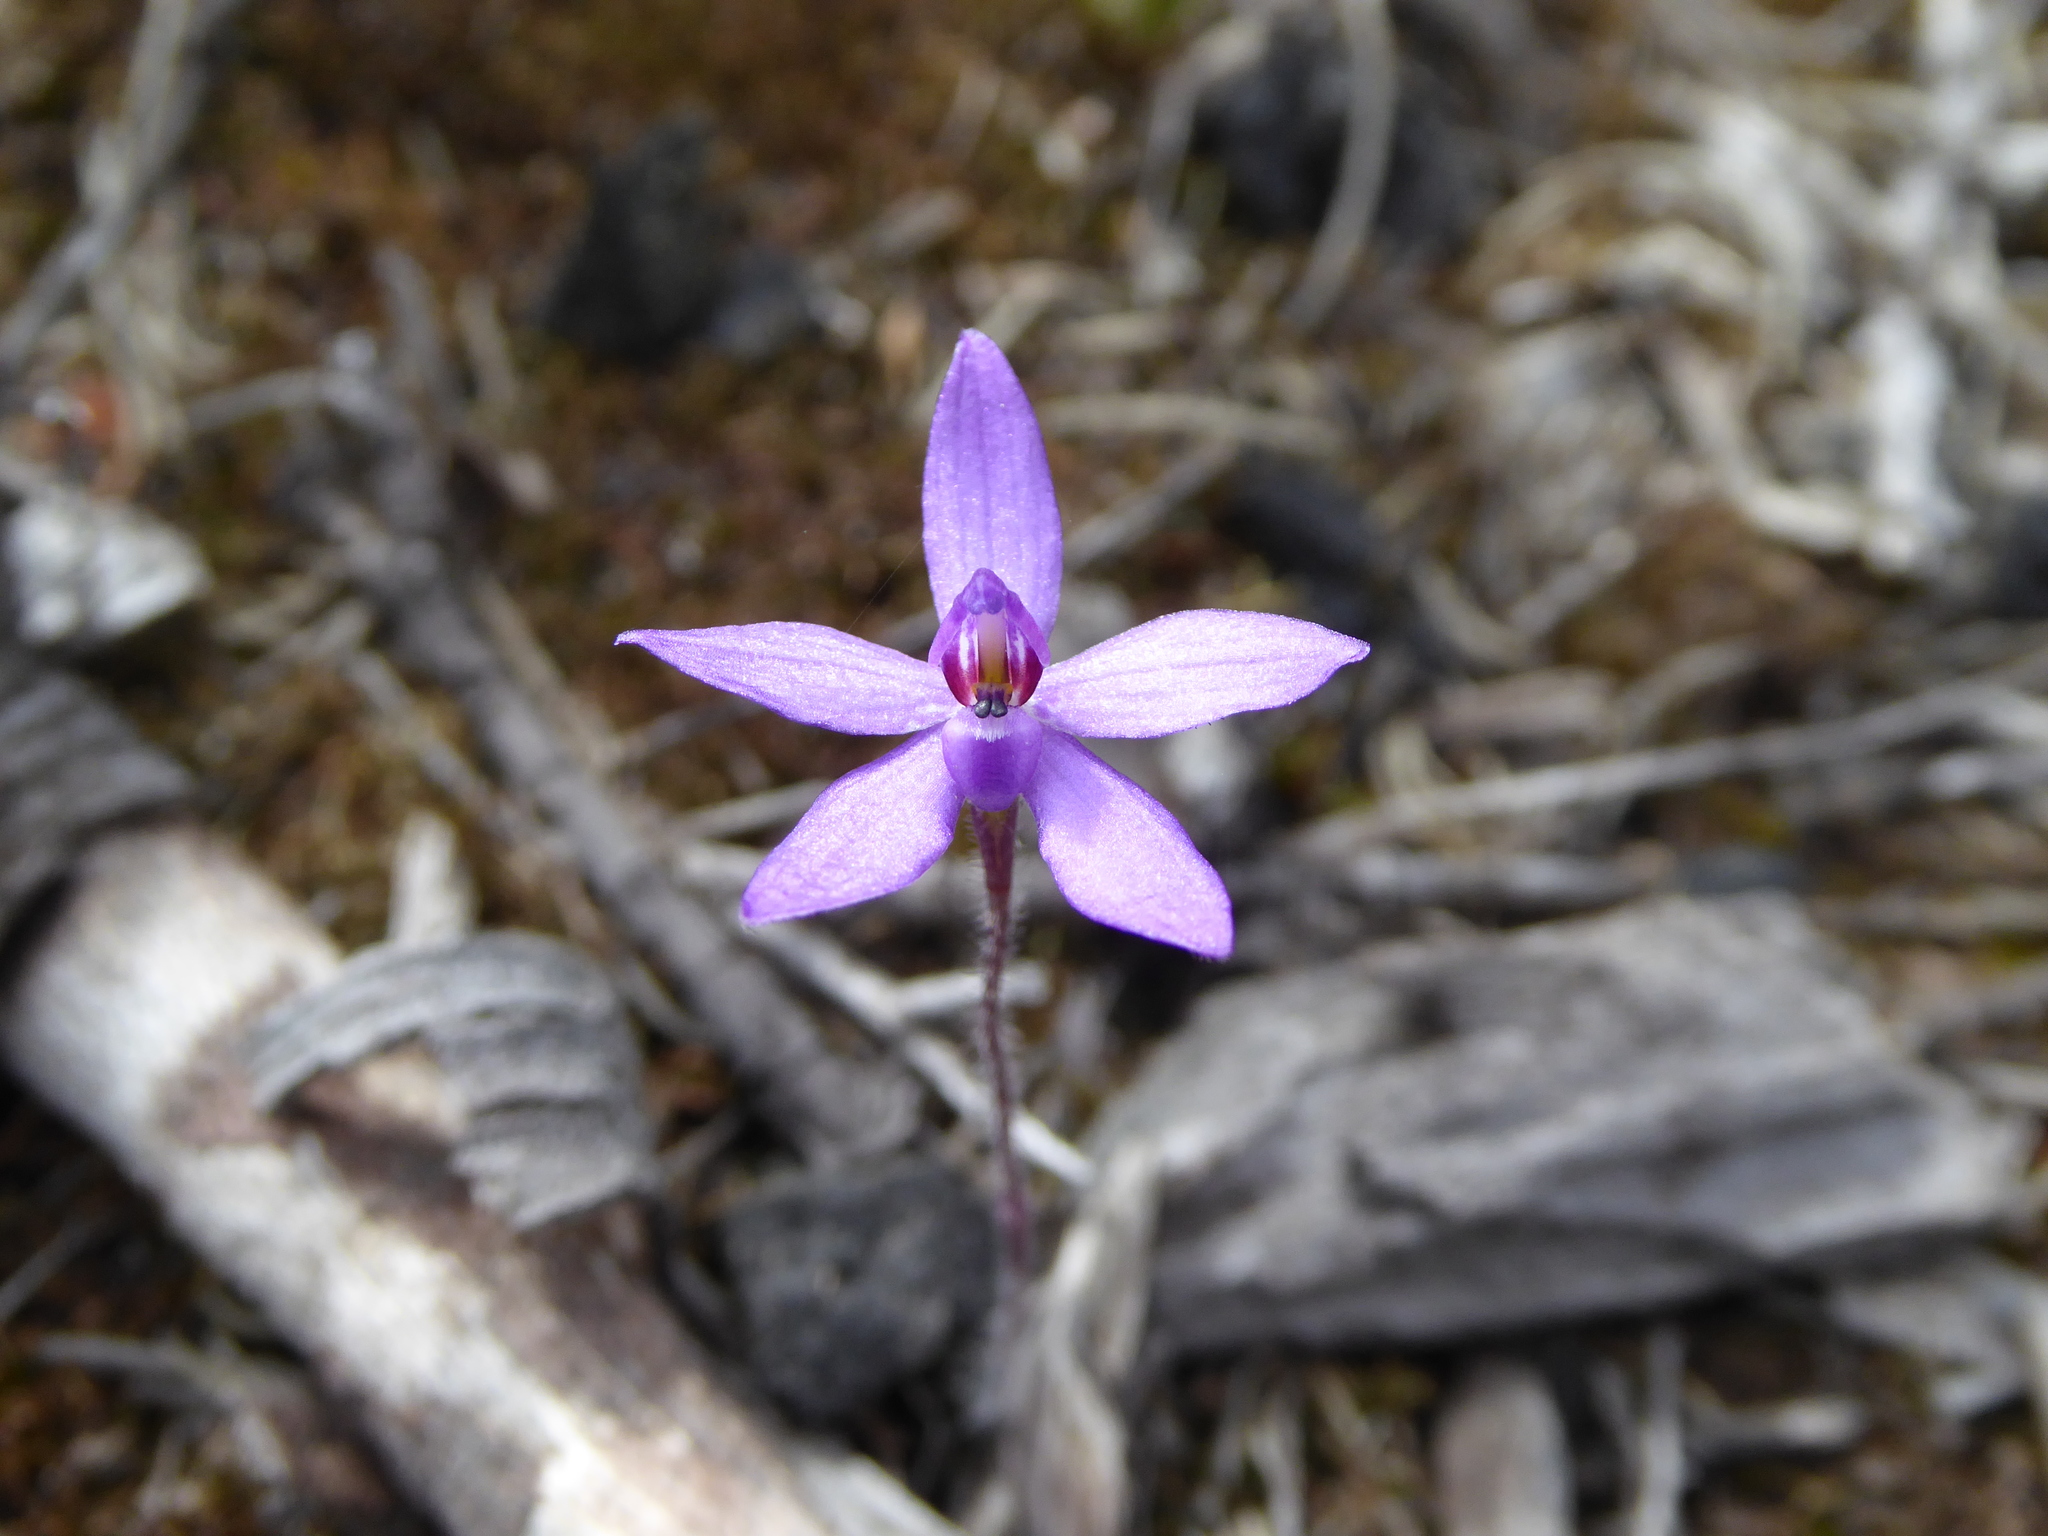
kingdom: Plantae
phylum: Tracheophyta
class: Liliopsida
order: Asparagales
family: Orchidaceae
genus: Caladenia
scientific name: Caladenia minorata
